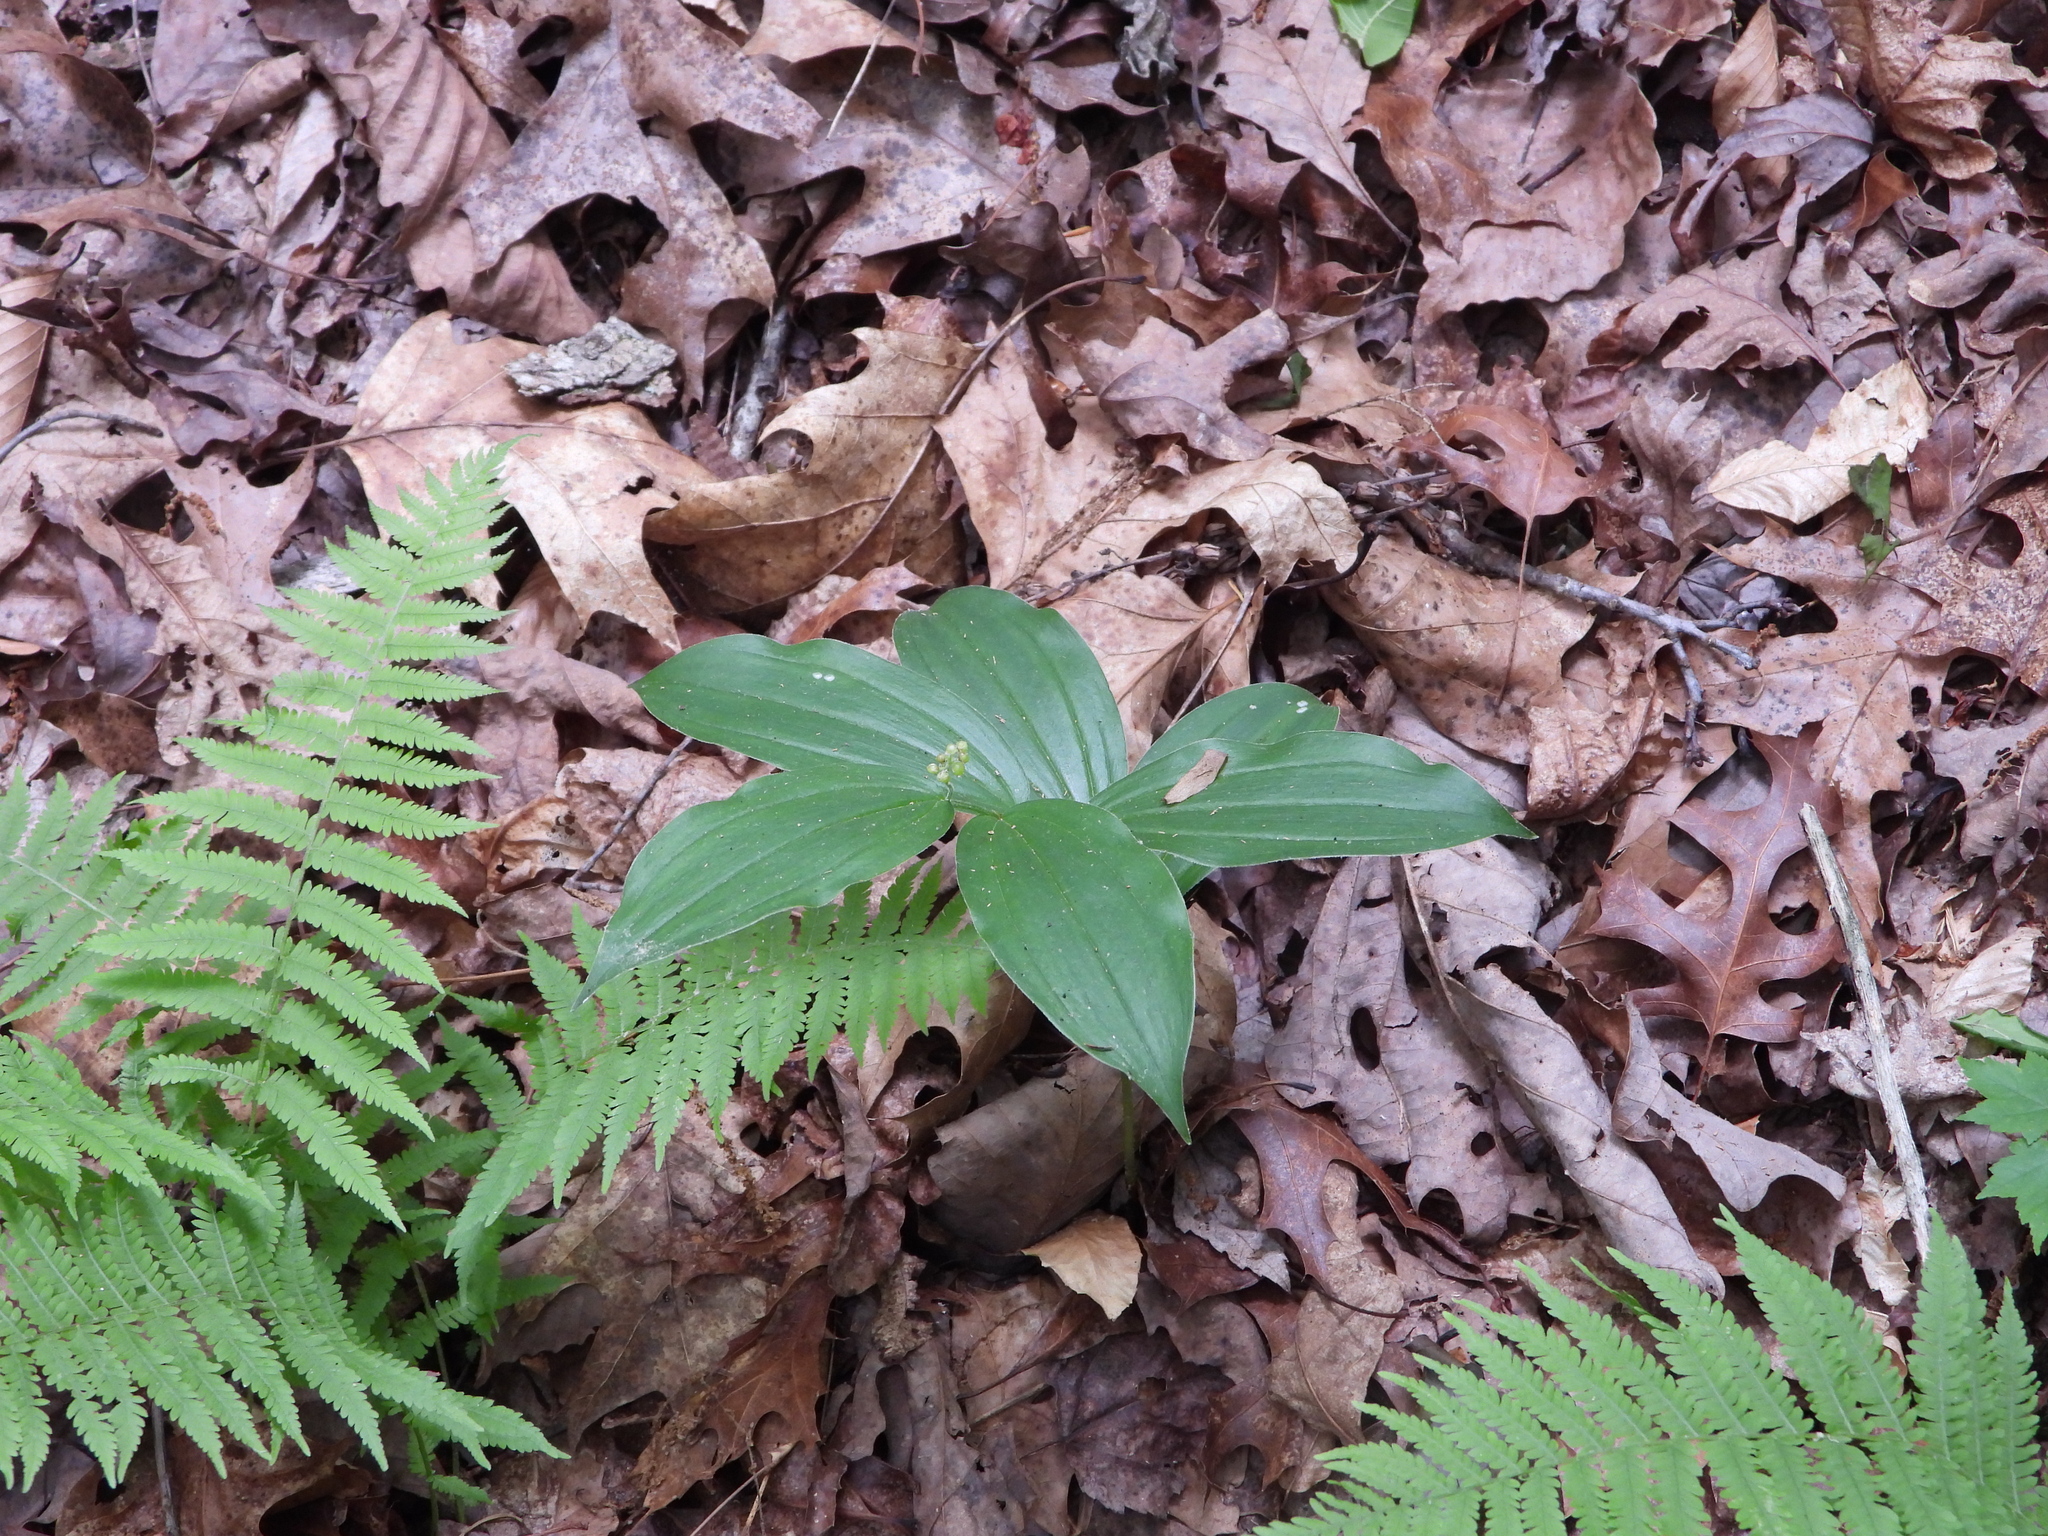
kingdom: Plantae
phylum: Tracheophyta
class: Liliopsida
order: Asparagales
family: Asparagaceae
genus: Maianthemum
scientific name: Maianthemum racemosum
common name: False spikenard
